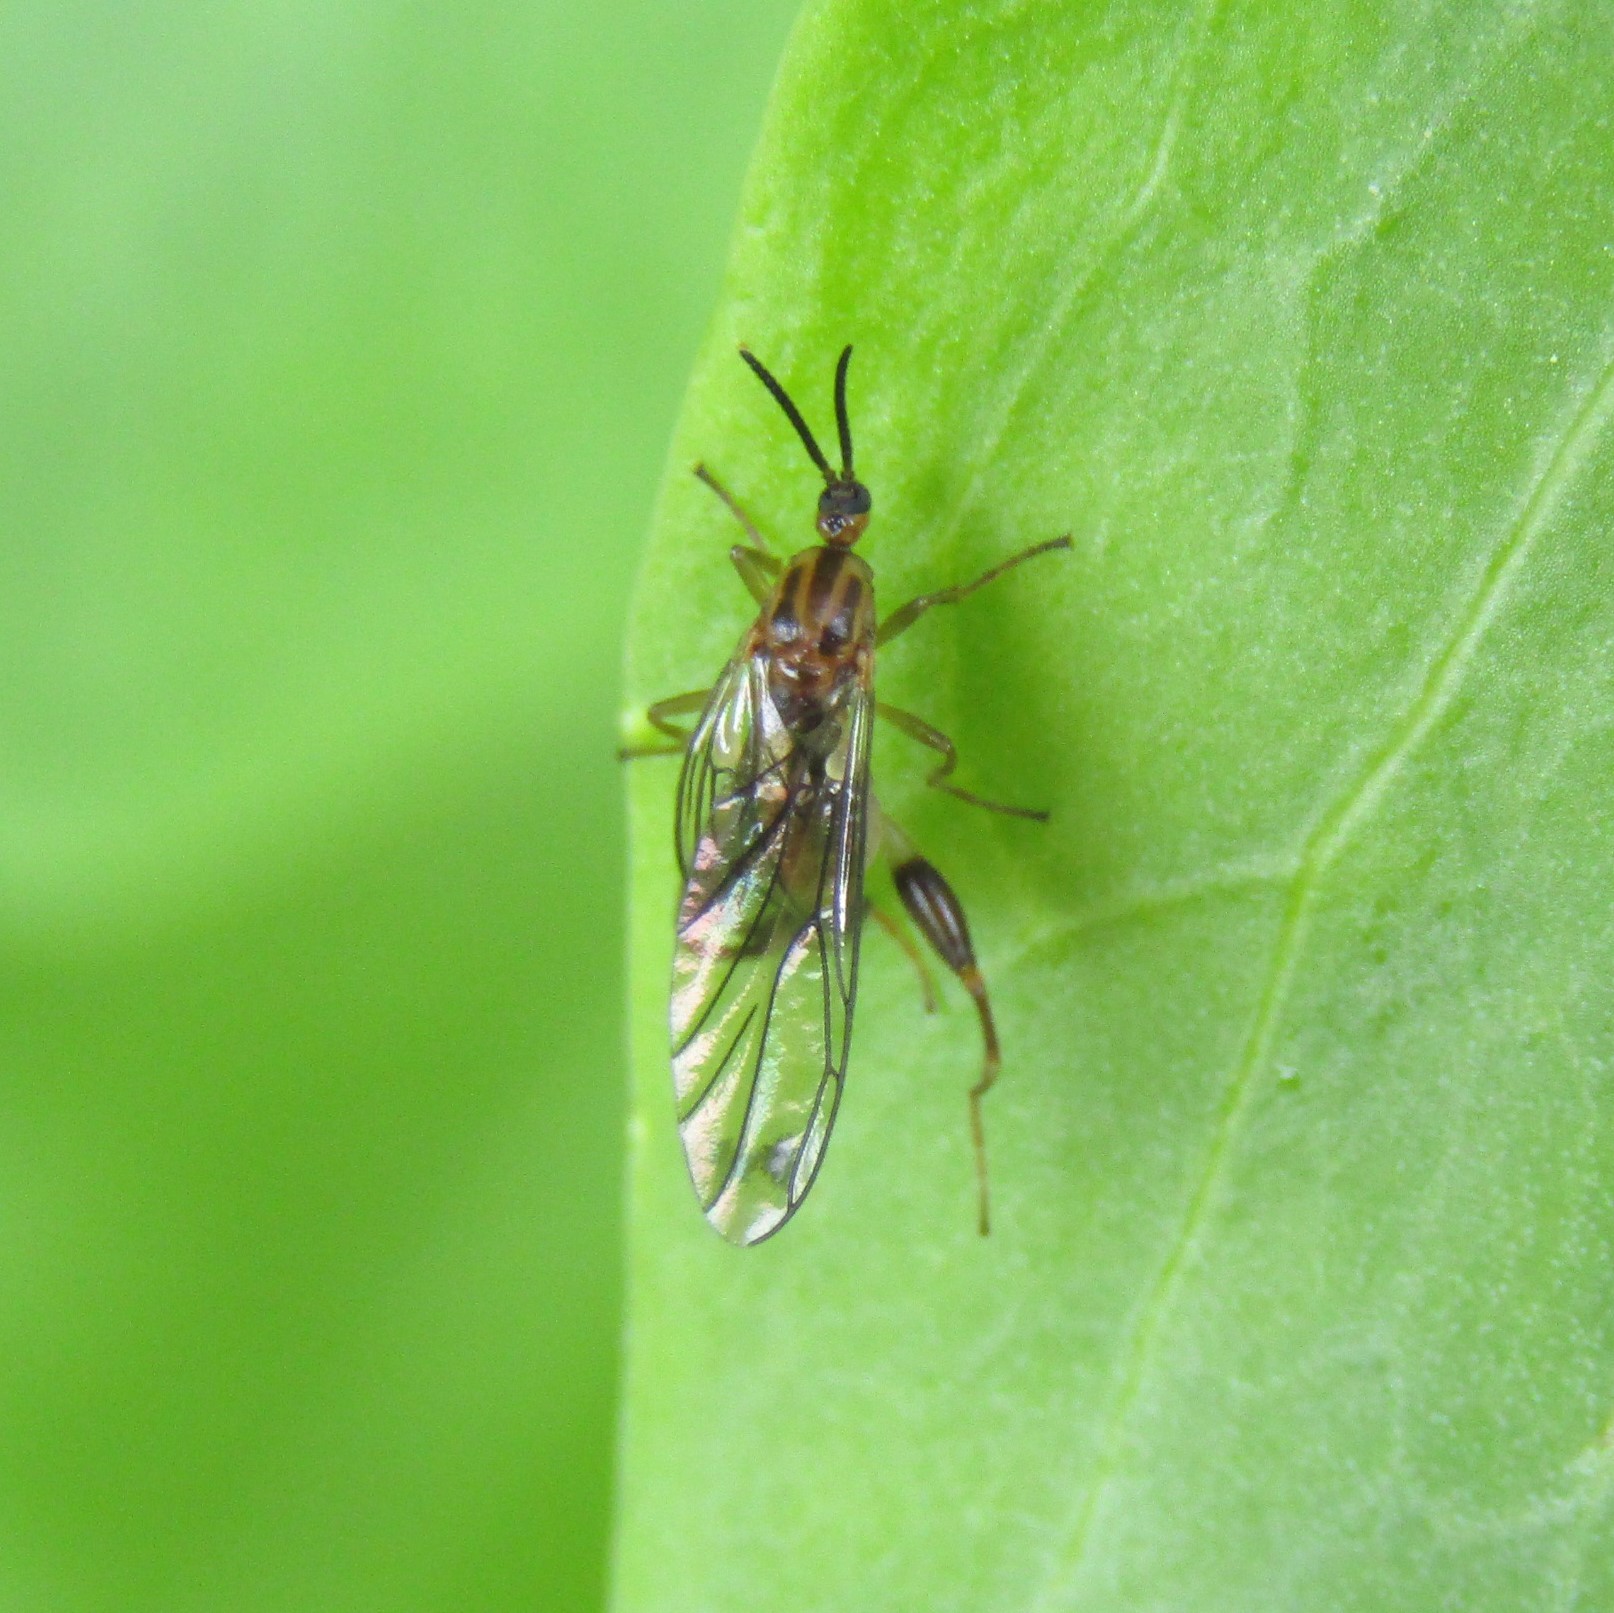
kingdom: Animalia
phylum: Arthropoda
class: Insecta
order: Diptera
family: Canthyloscelididae
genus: Canthyloscelis
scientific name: Canthyloscelis antennata
